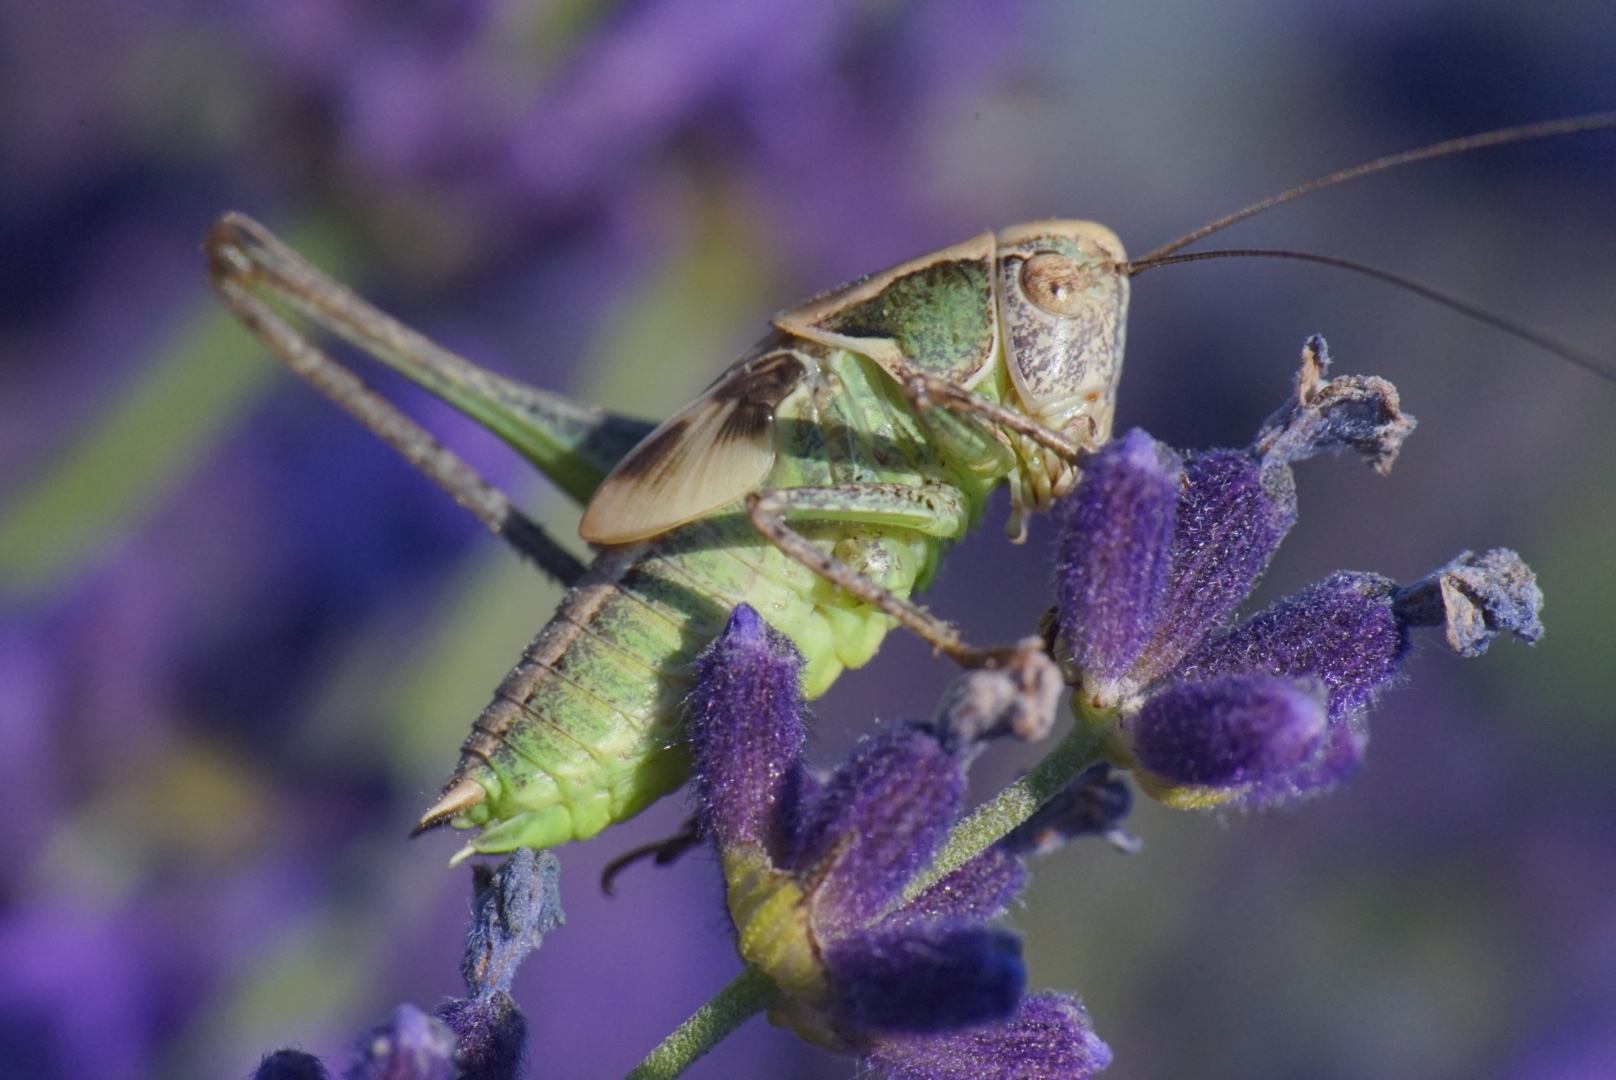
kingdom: Animalia
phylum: Arthropoda
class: Insecta
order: Orthoptera
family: Tettigoniidae
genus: Platycleis
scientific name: Platycleis grisea
